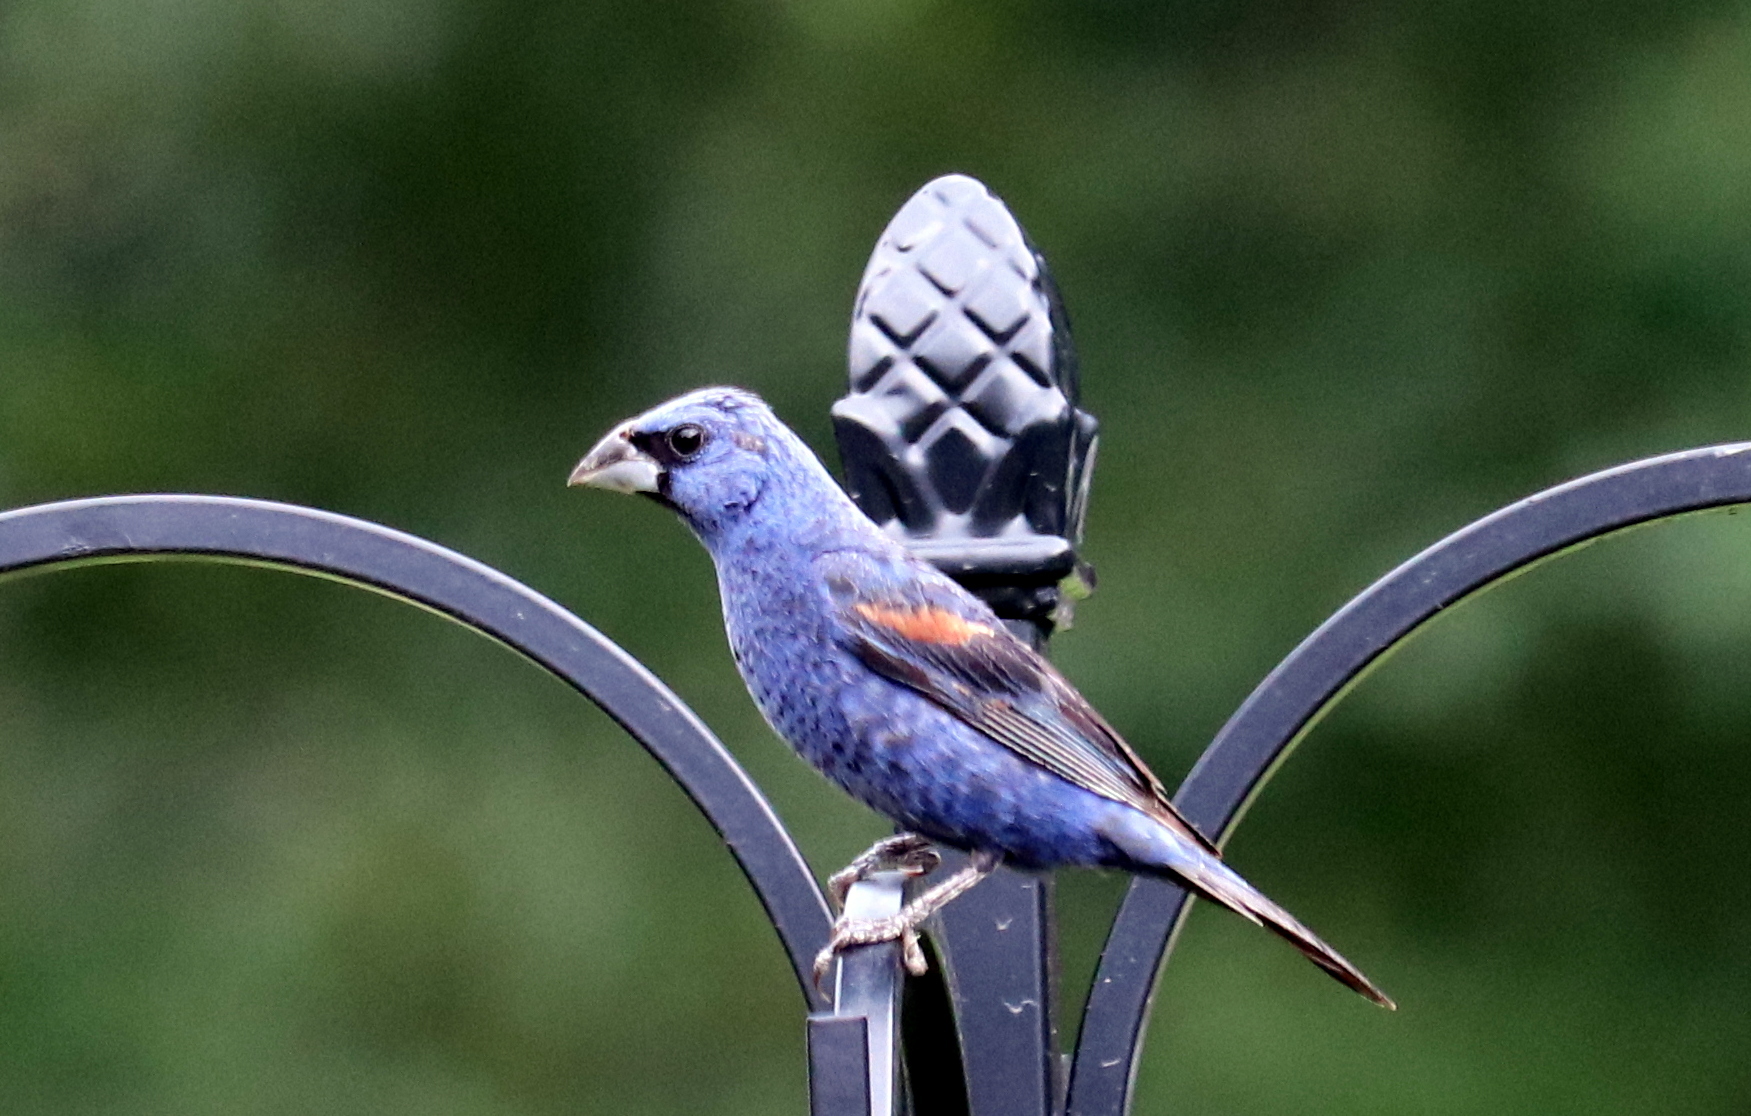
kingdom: Animalia
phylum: Chordata
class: Aves
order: Passeriformes
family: Cardinalidae
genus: Passerina
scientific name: Passerina caerulea
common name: Blue grosbeak
